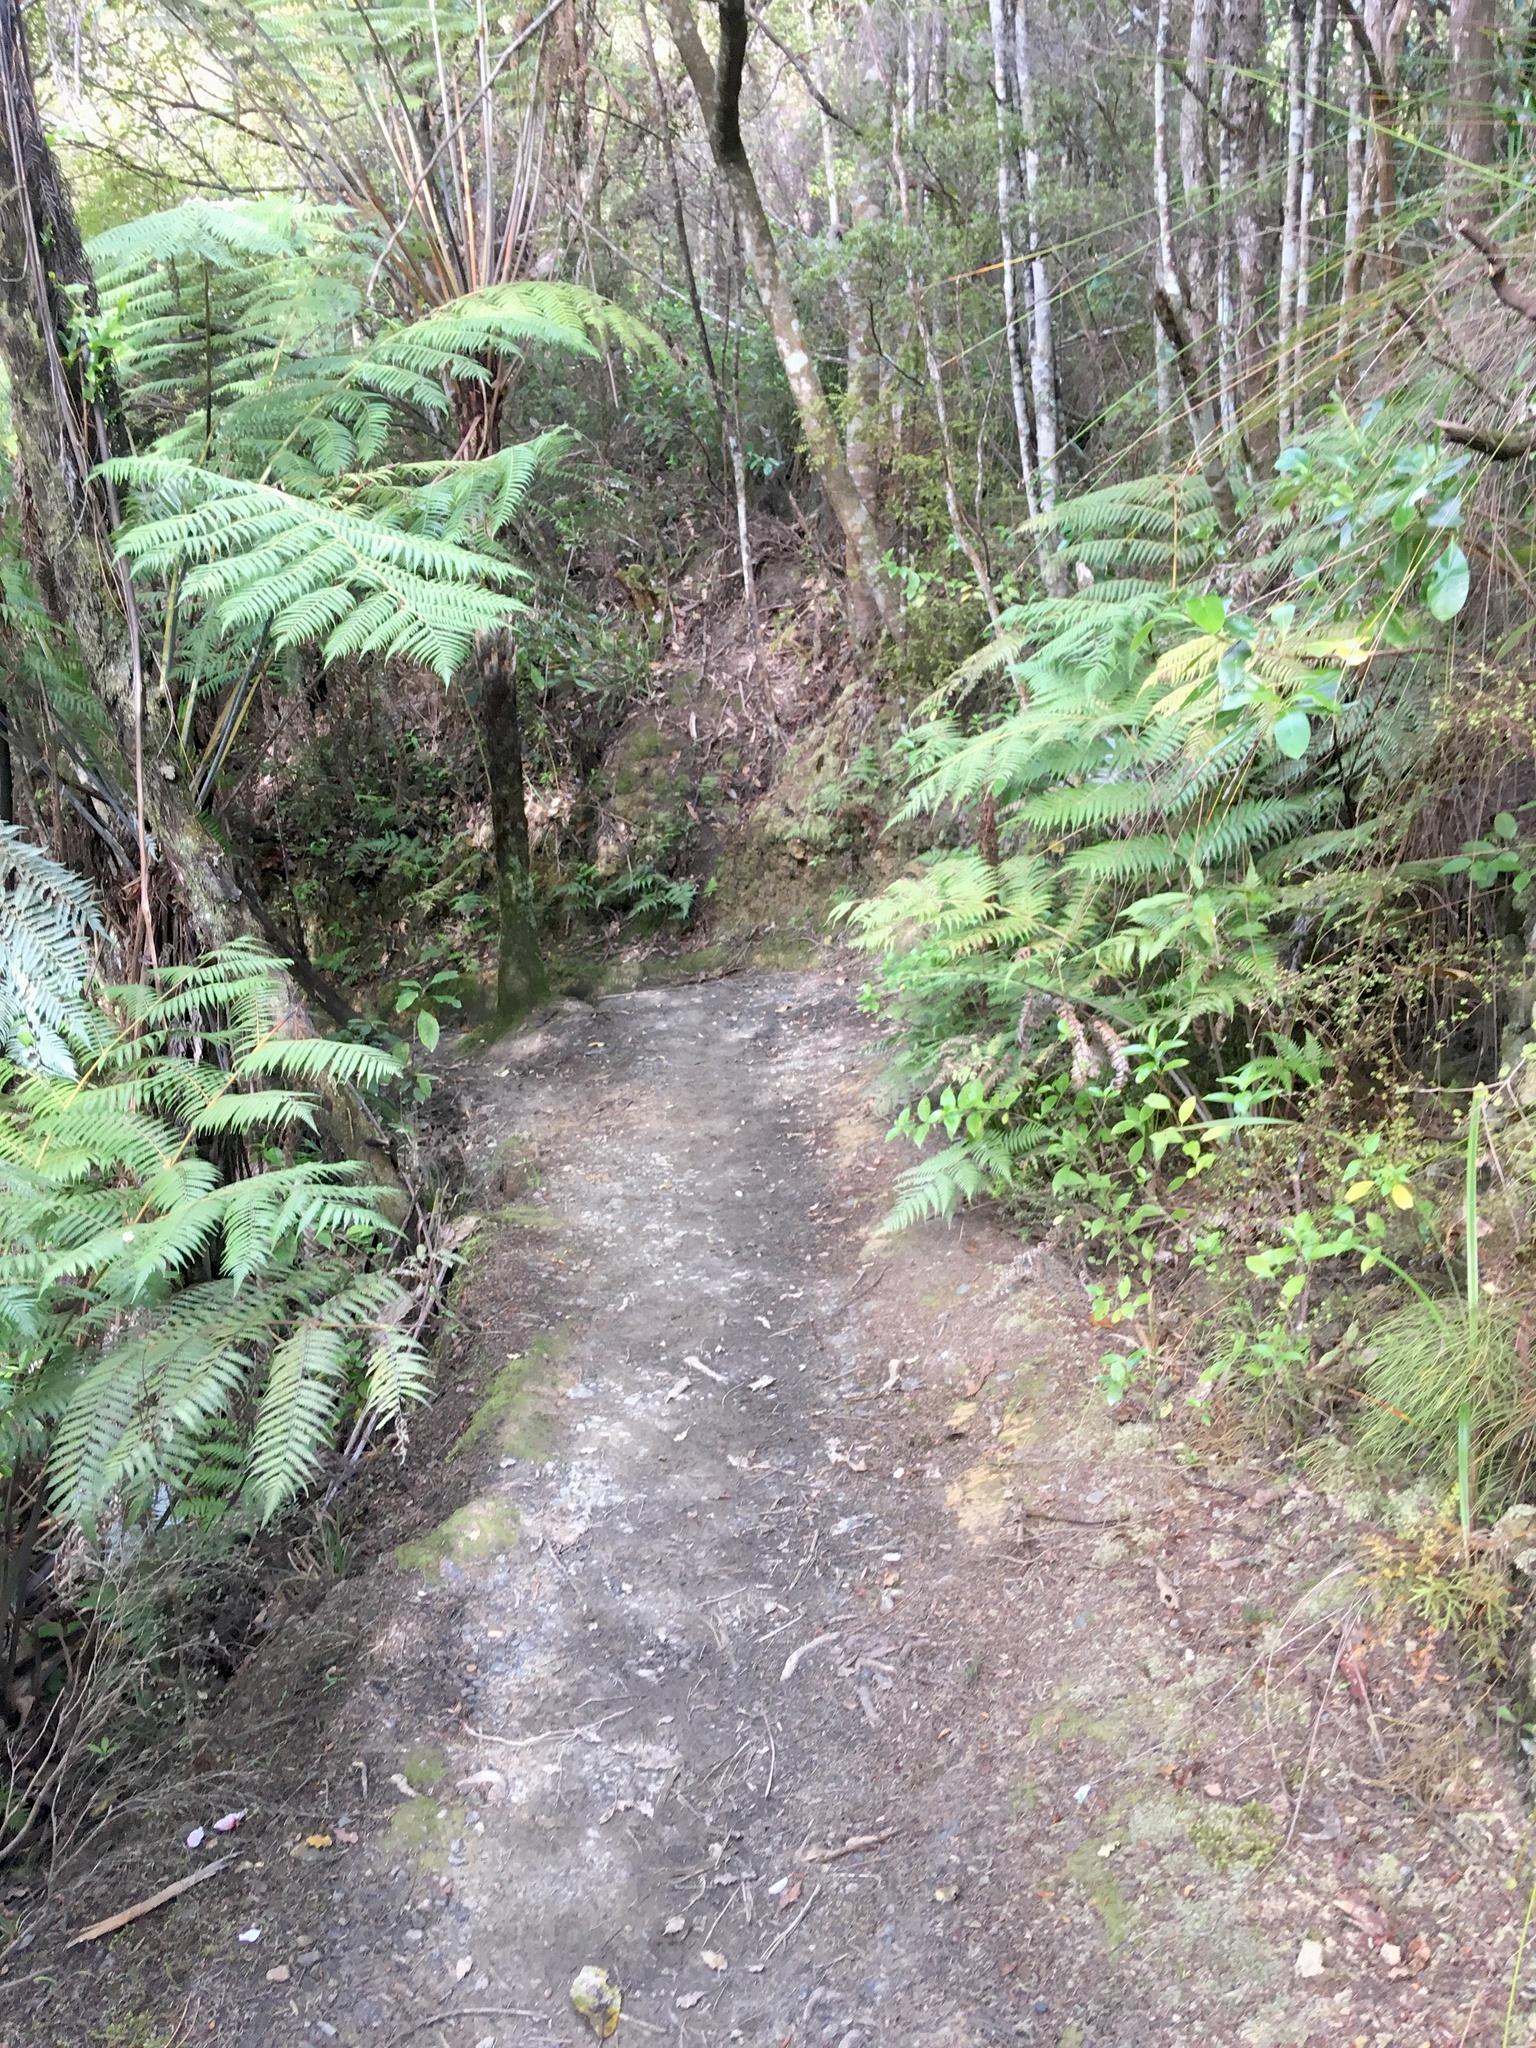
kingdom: Plantae
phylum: Tracheophyta
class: Polypodiopsida
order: Cyatheales
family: Cyatheaceae
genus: Alsophila
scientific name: Alsophila dealbata
